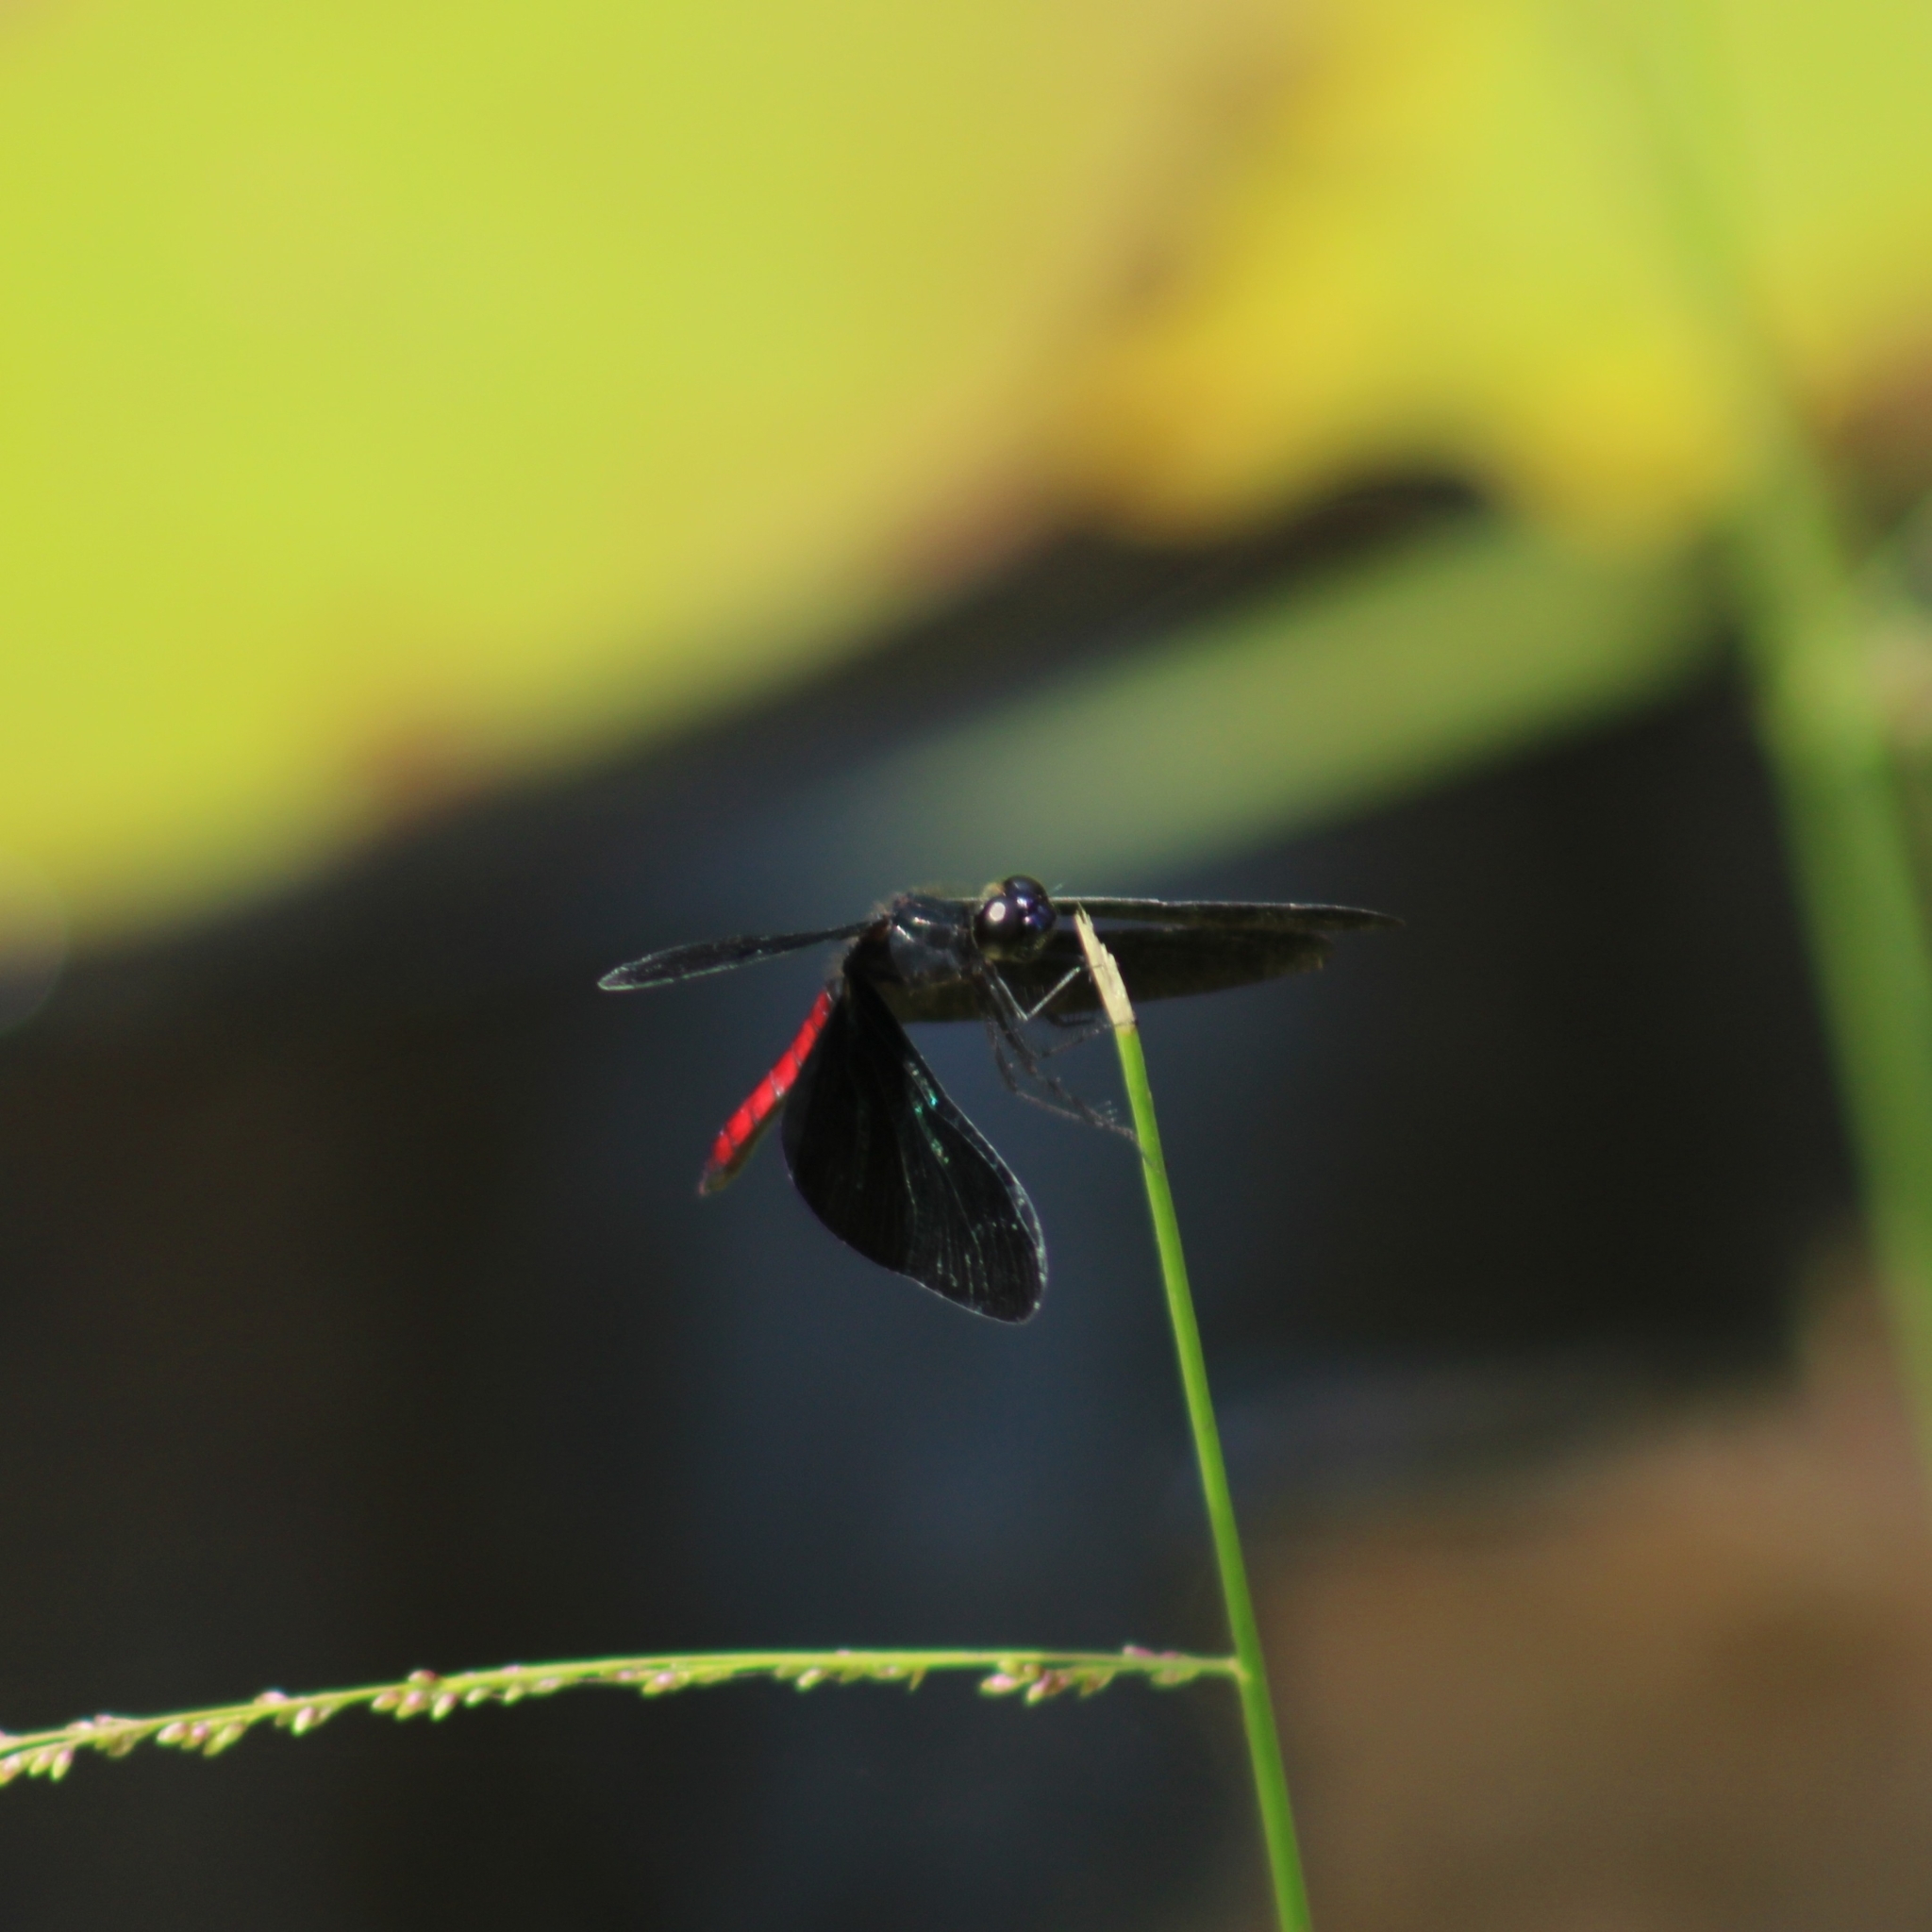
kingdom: Animalia
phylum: Arthropoda
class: Insecta
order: Odonata
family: Libellulidae
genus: Diastatops
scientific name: Diastatops obscura
